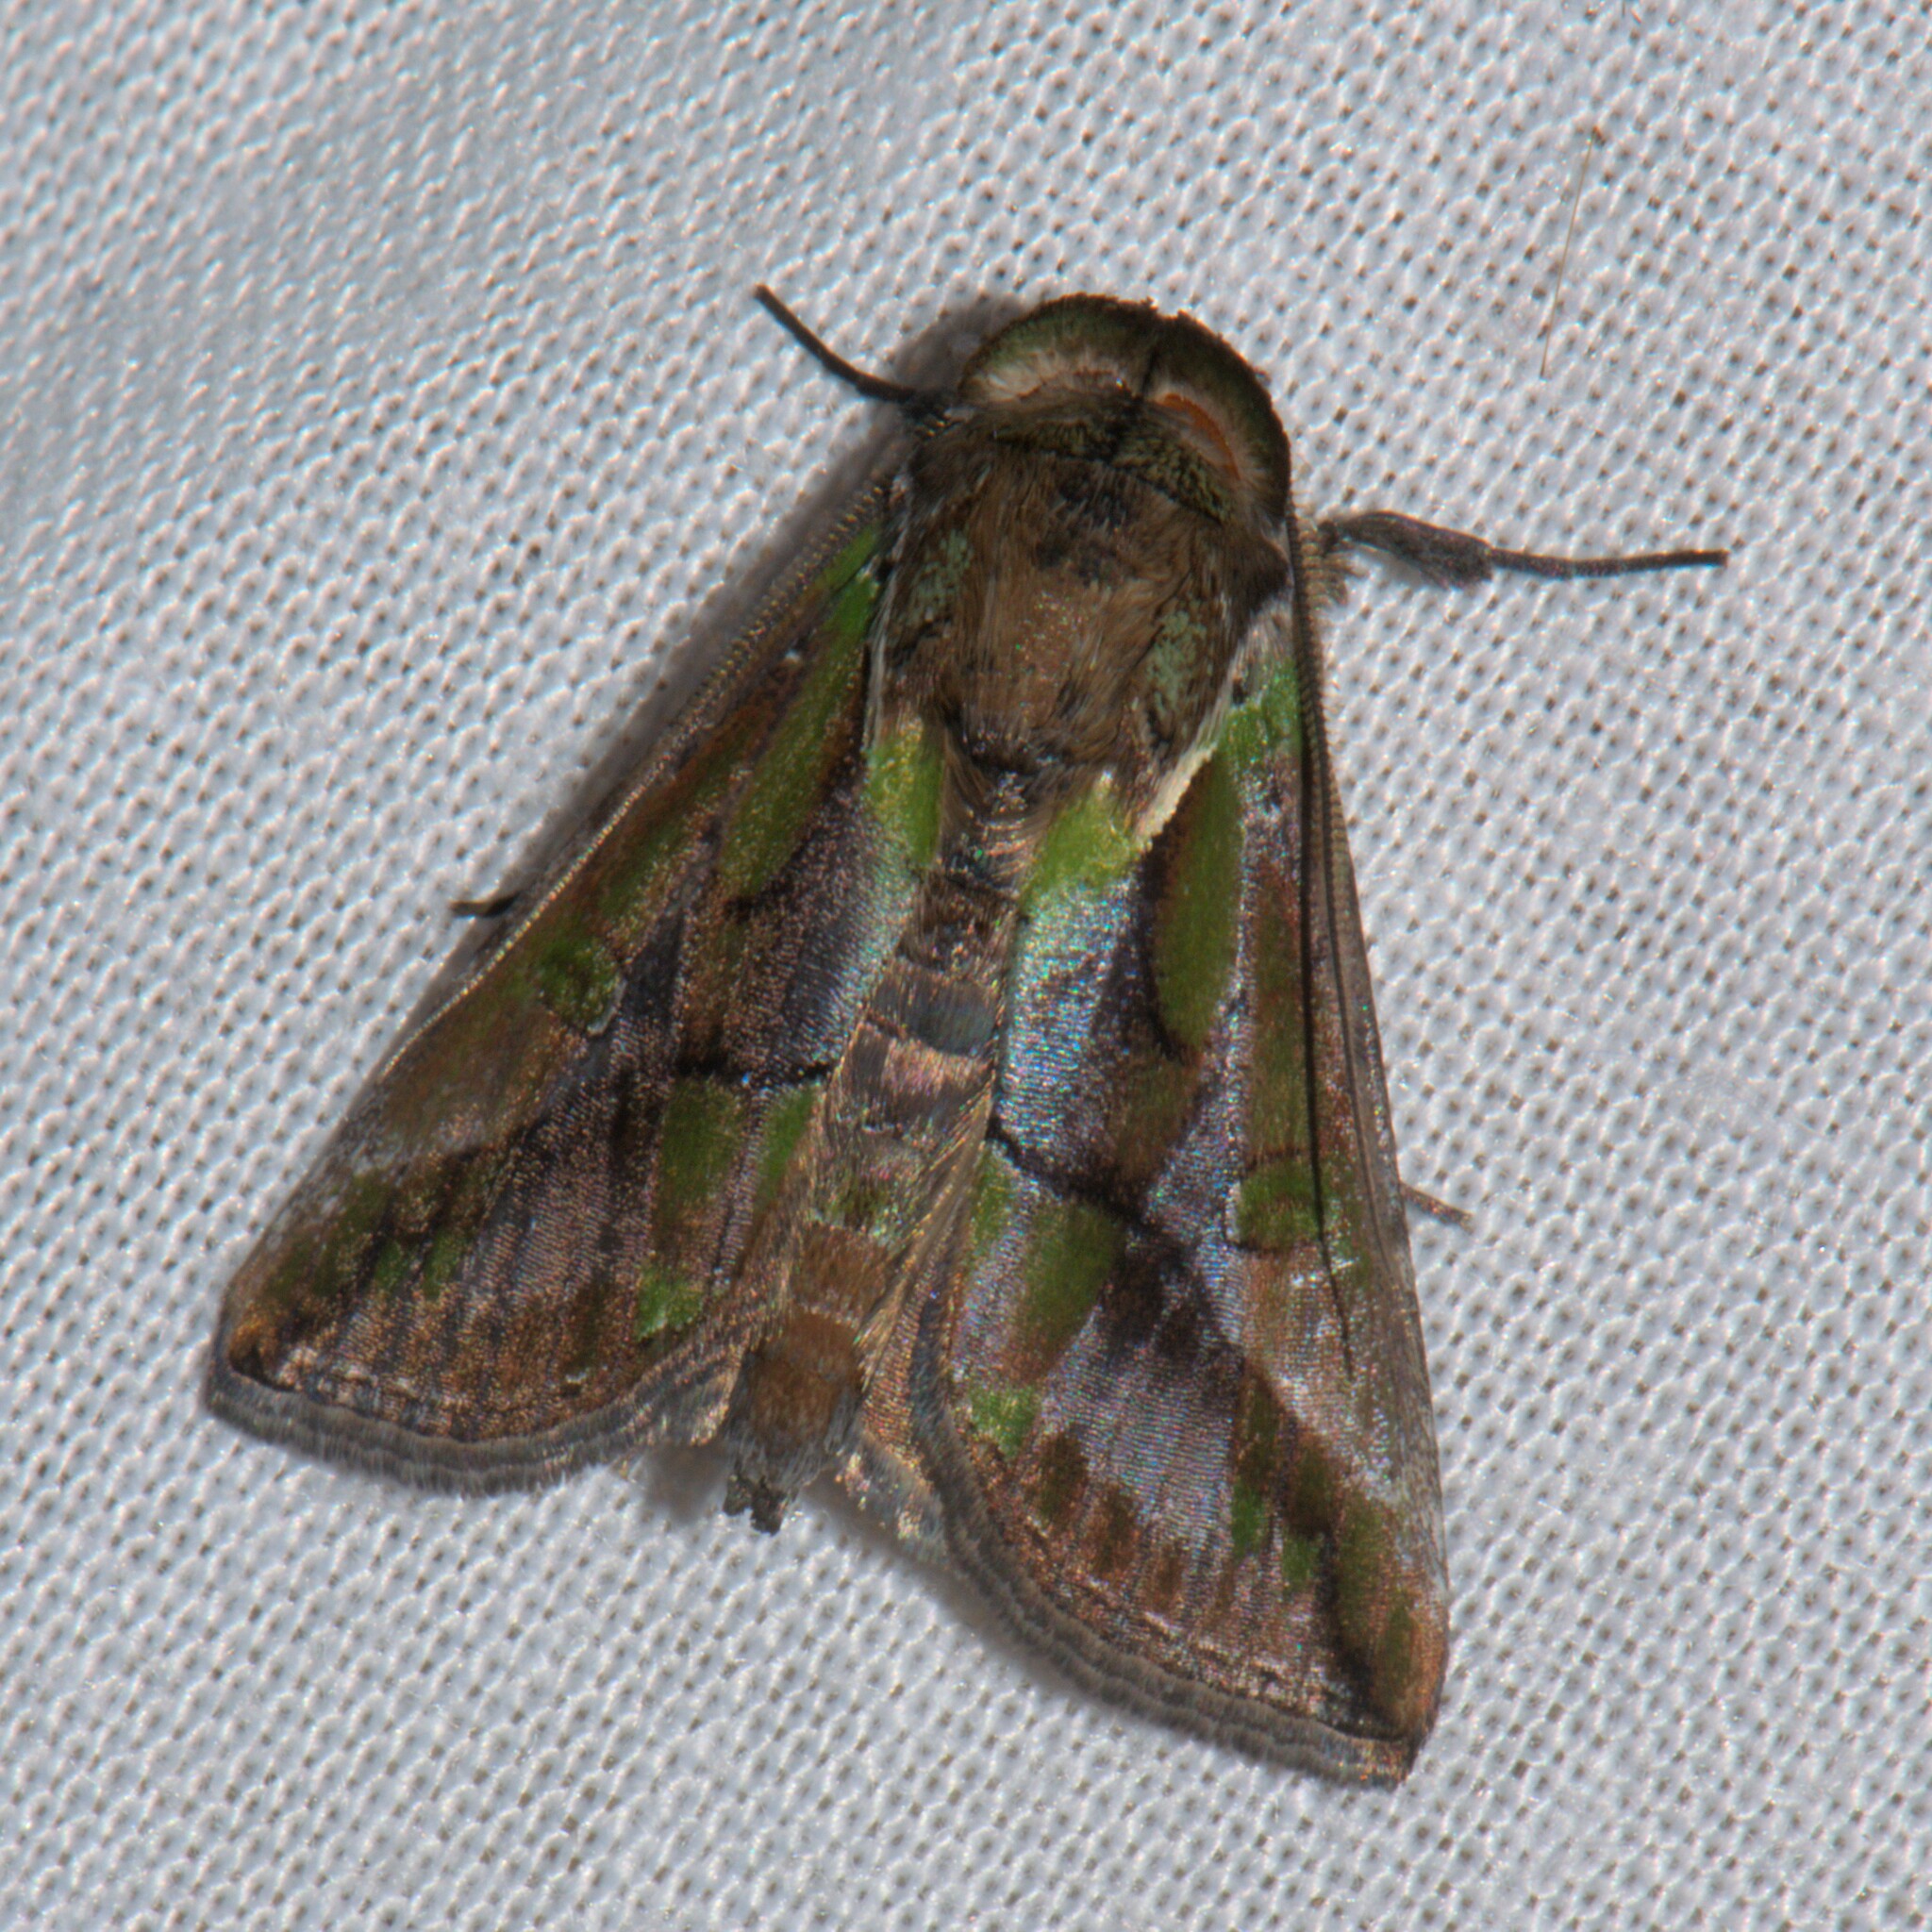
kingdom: Animalia
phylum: Arthropoda
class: Insecta
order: Lepidoptera
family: Nolidae
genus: Risoba
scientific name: Risoba variegata
